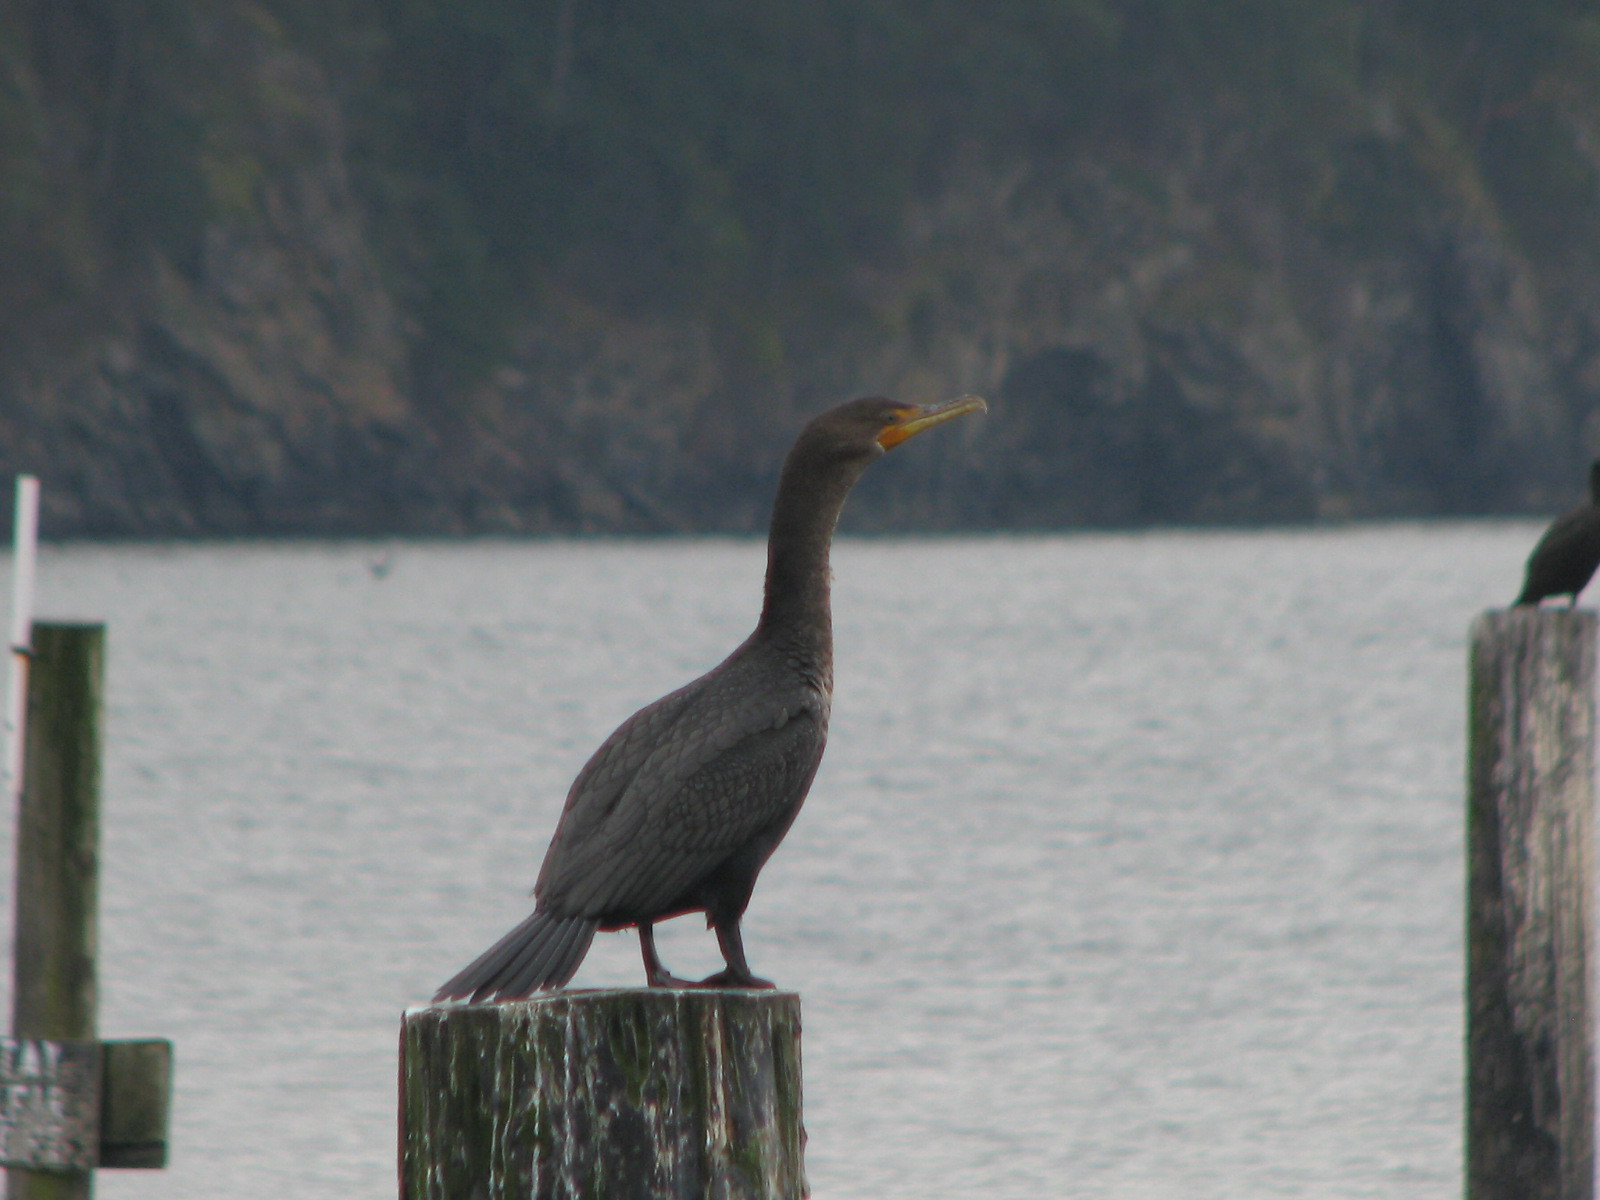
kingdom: Animalia
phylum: Chordata
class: Aves
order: Suliformes
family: Phalacrocoracidae
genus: Phalacrocorax
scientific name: Phalacrocorax auritus
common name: Double-crested cormorant
